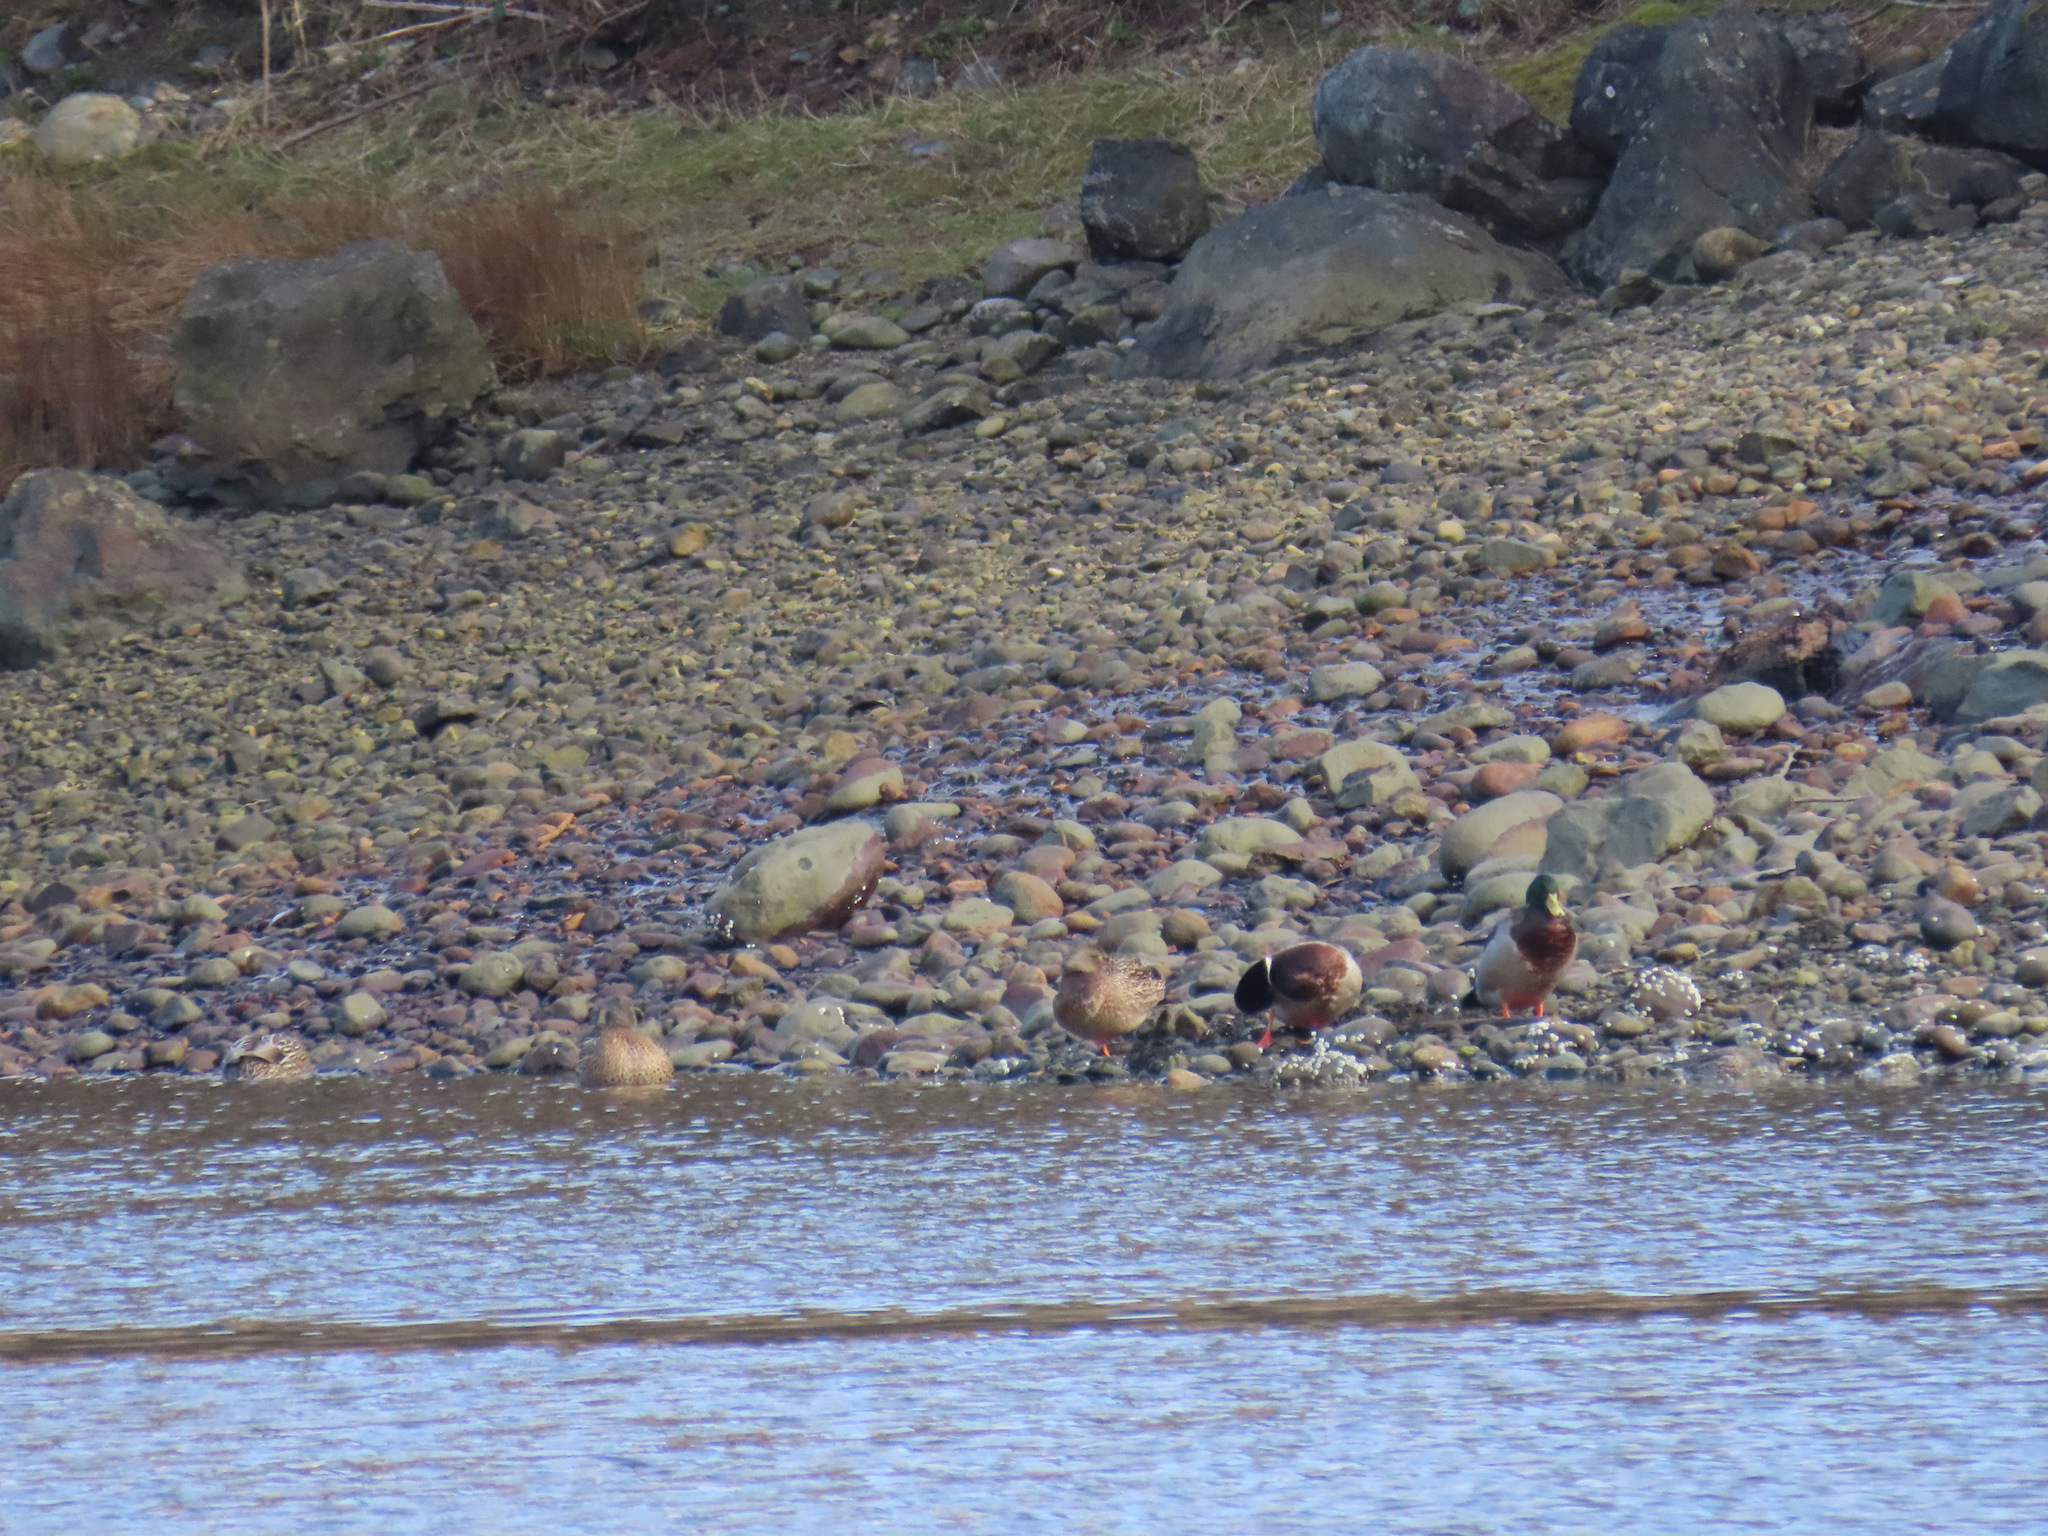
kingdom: Animalia
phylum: Chordata
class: Aves
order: Anseriformes
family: Anatidae
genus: Anas
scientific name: Anas platyrhynchos
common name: Mallard
